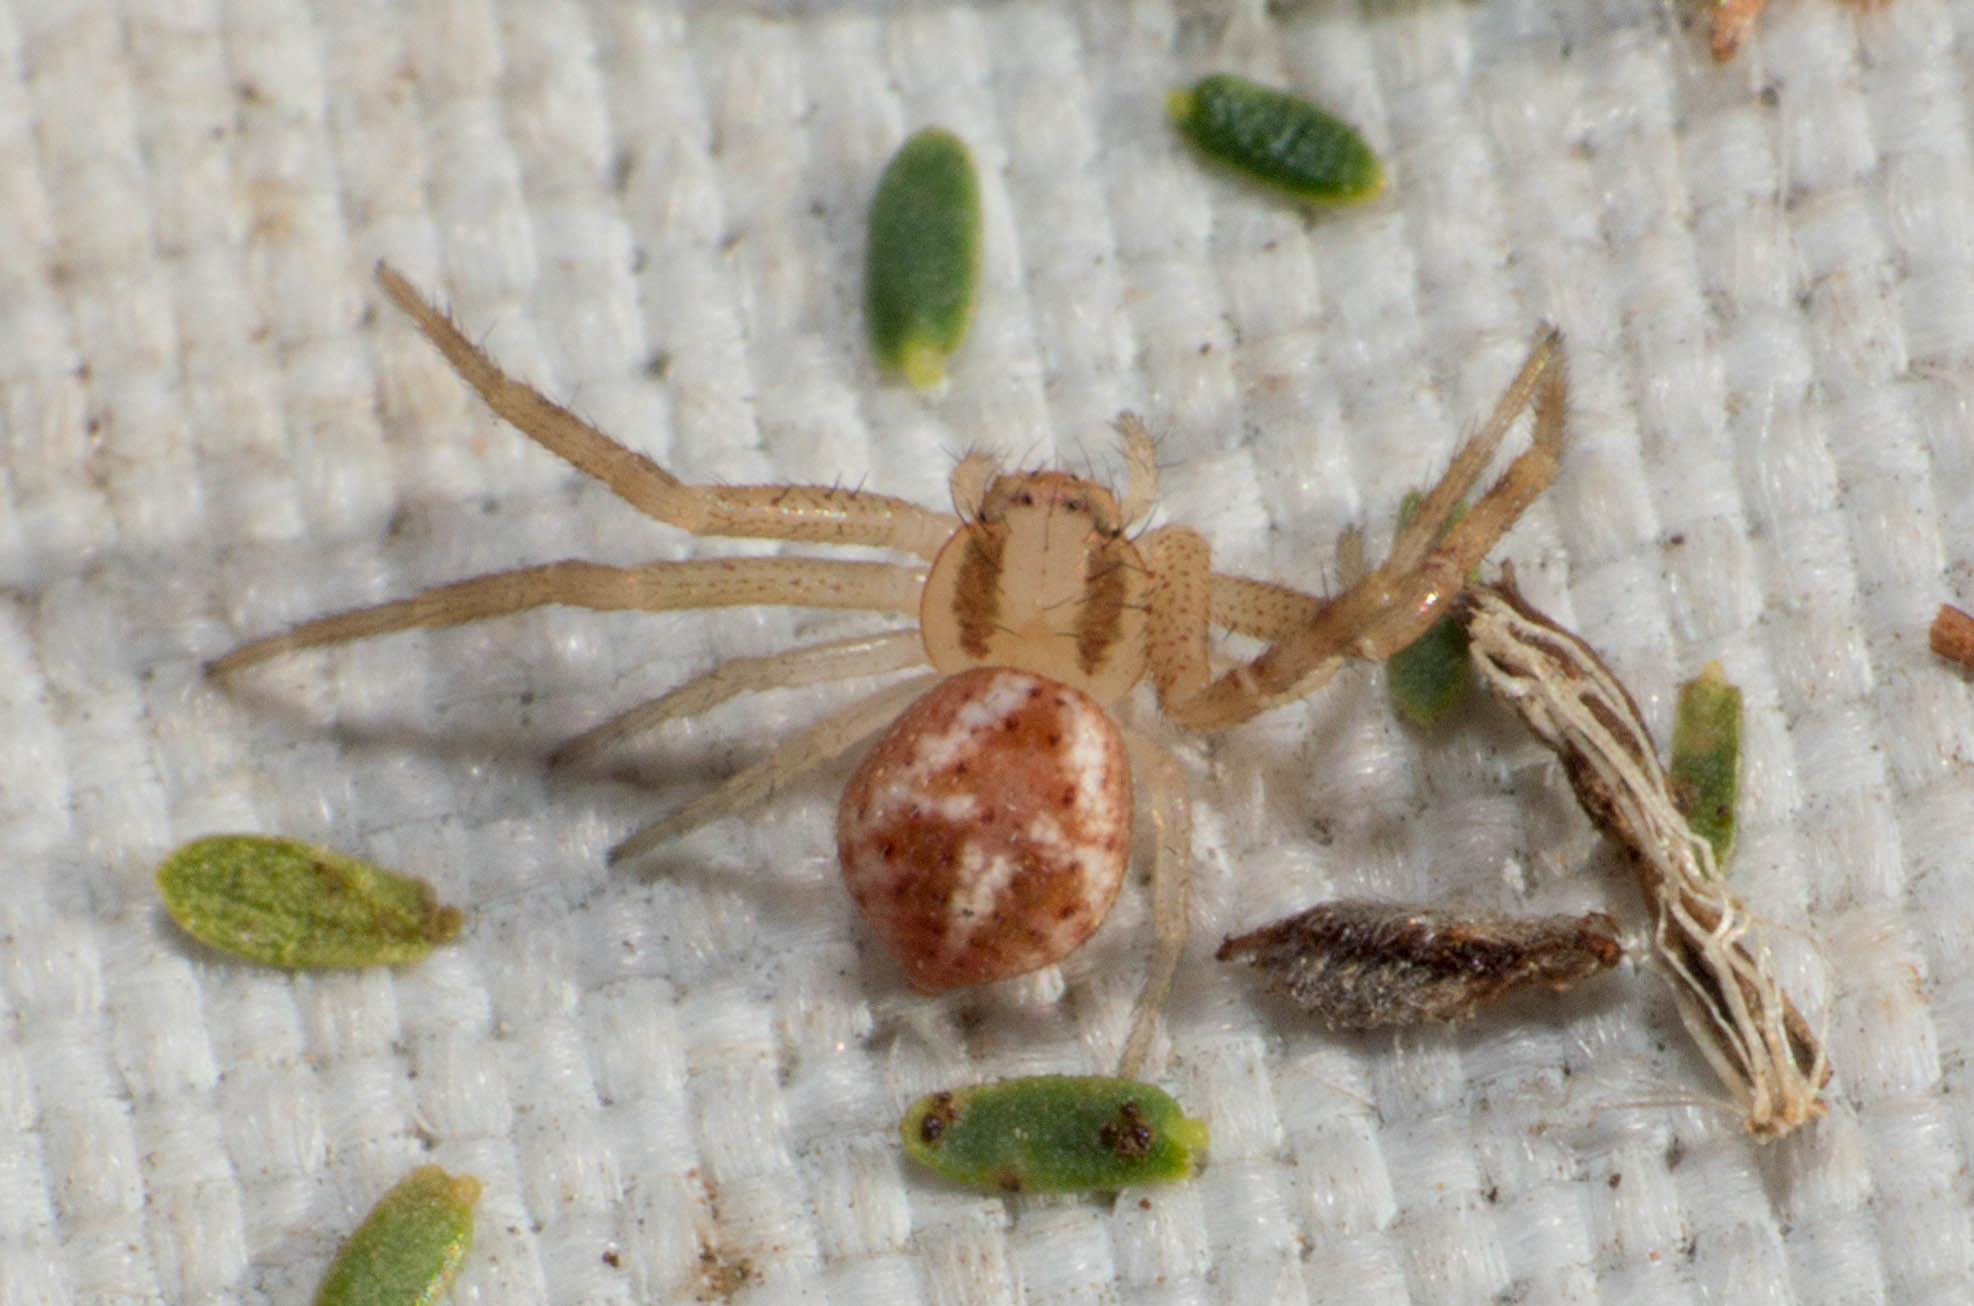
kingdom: Animalia
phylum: Arthropoda
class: Arachnida
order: Araneae
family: Thomisidae
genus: Misumenops
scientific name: Misumenops
